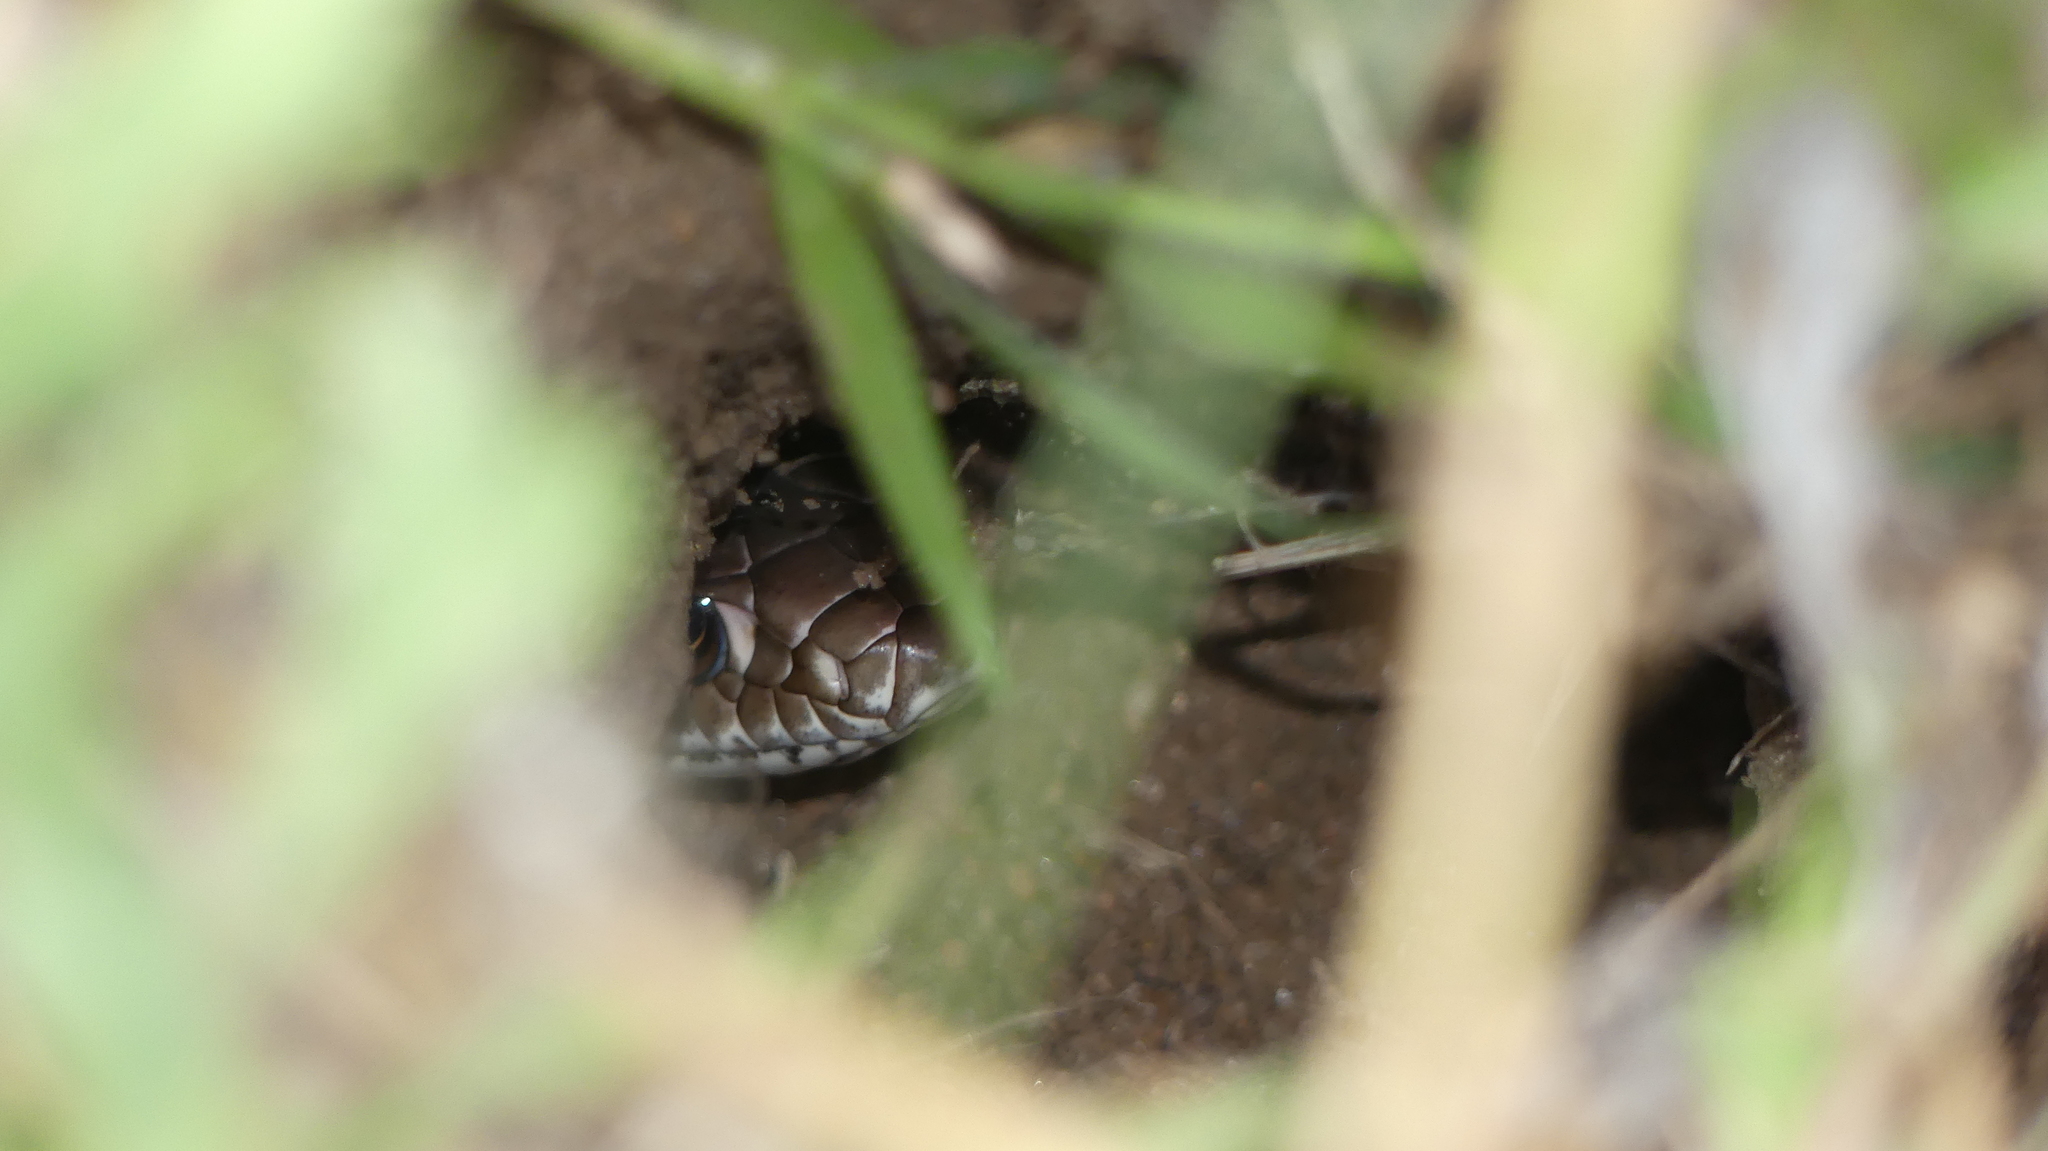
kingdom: Animalia
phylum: Chordata
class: Squamata
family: Colubridae
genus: Masticophis
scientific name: Masticophis flagellum
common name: Coachwhip
